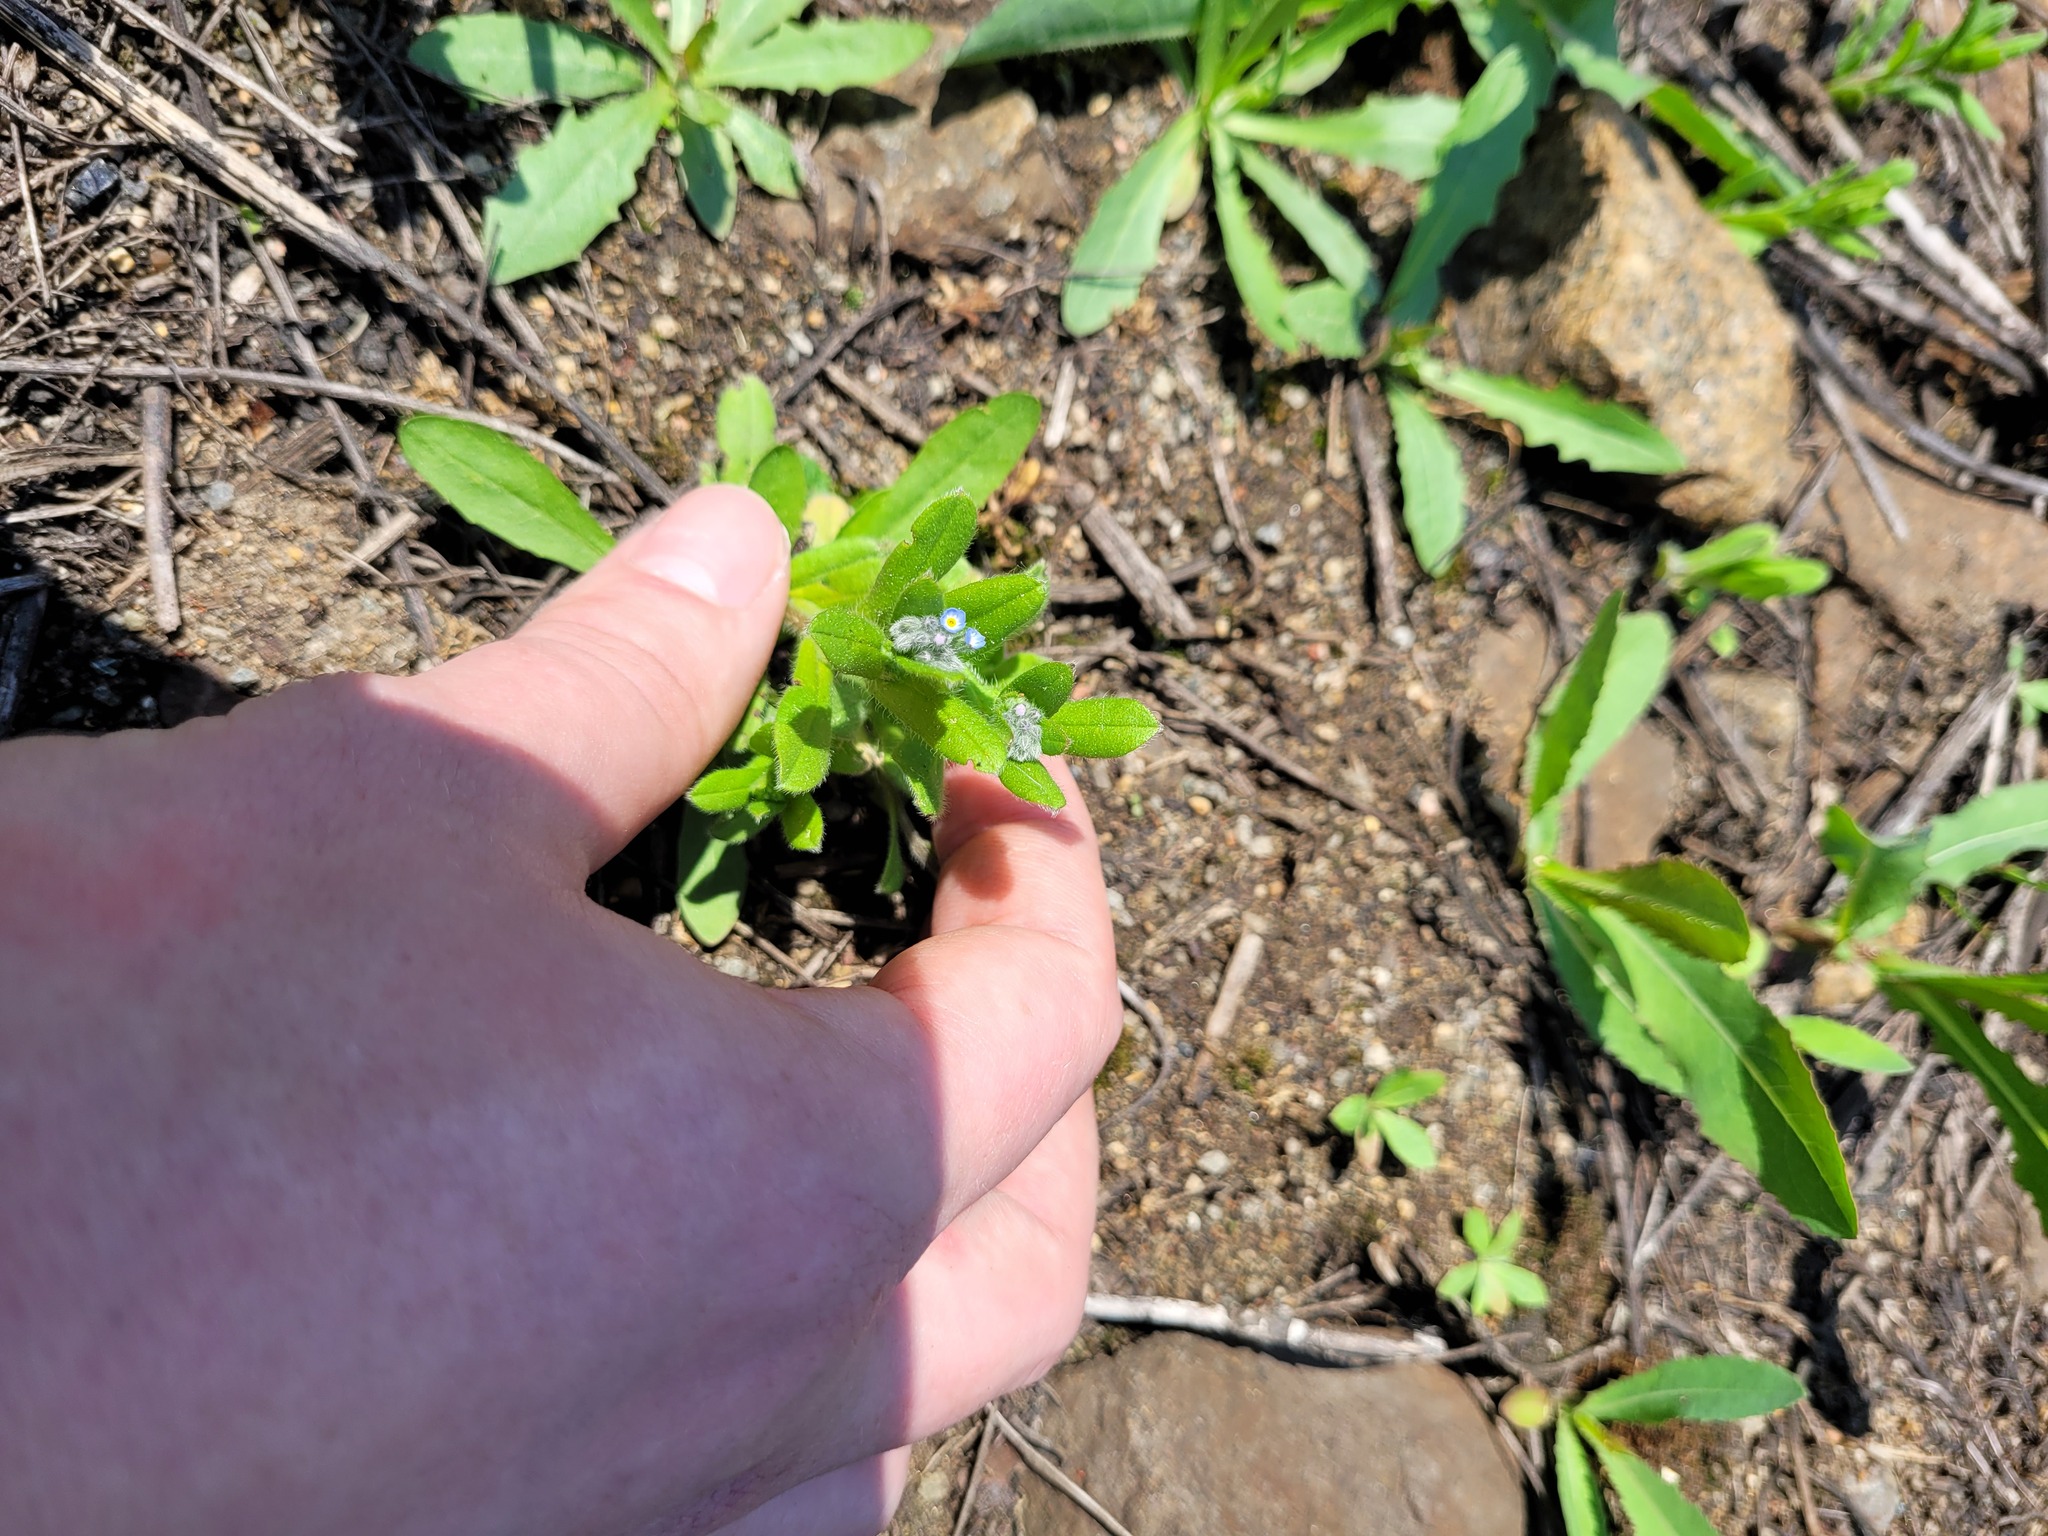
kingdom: Plantae
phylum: Tracheophyta
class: Magnoliopsida
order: Boraginales
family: Boraginaceae
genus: Myosotis
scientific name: Myosotis arvensis
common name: Field forget-me-not
